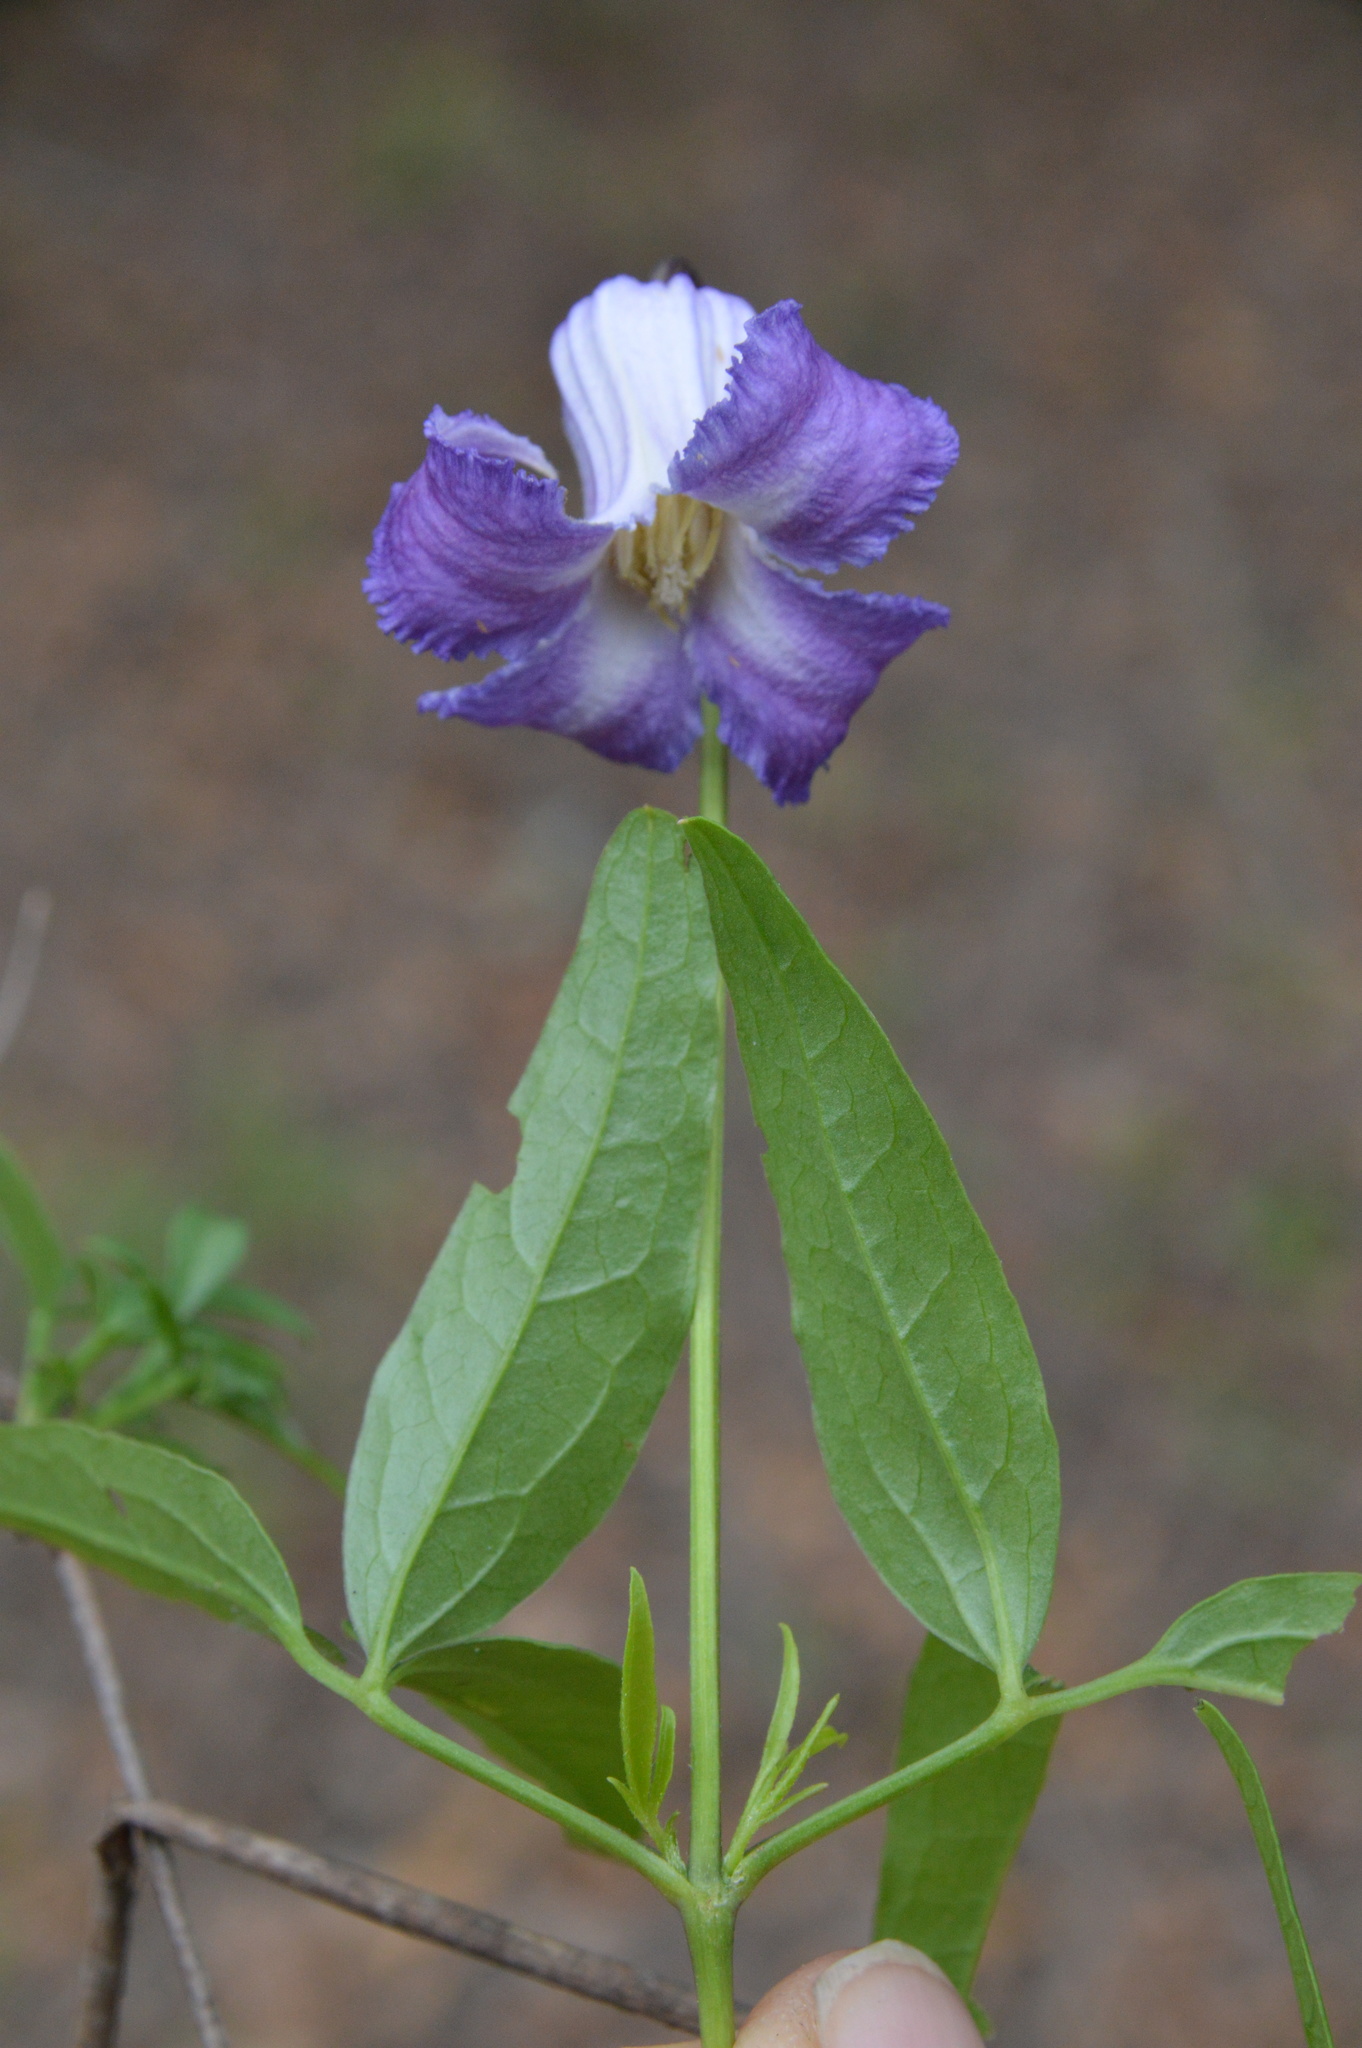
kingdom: Plantae
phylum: Tracheophyta
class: Magnoliopsida
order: Ranunculales
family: Ranunculaceae
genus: Clematis
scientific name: Clematis crispa
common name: Curly clematis
